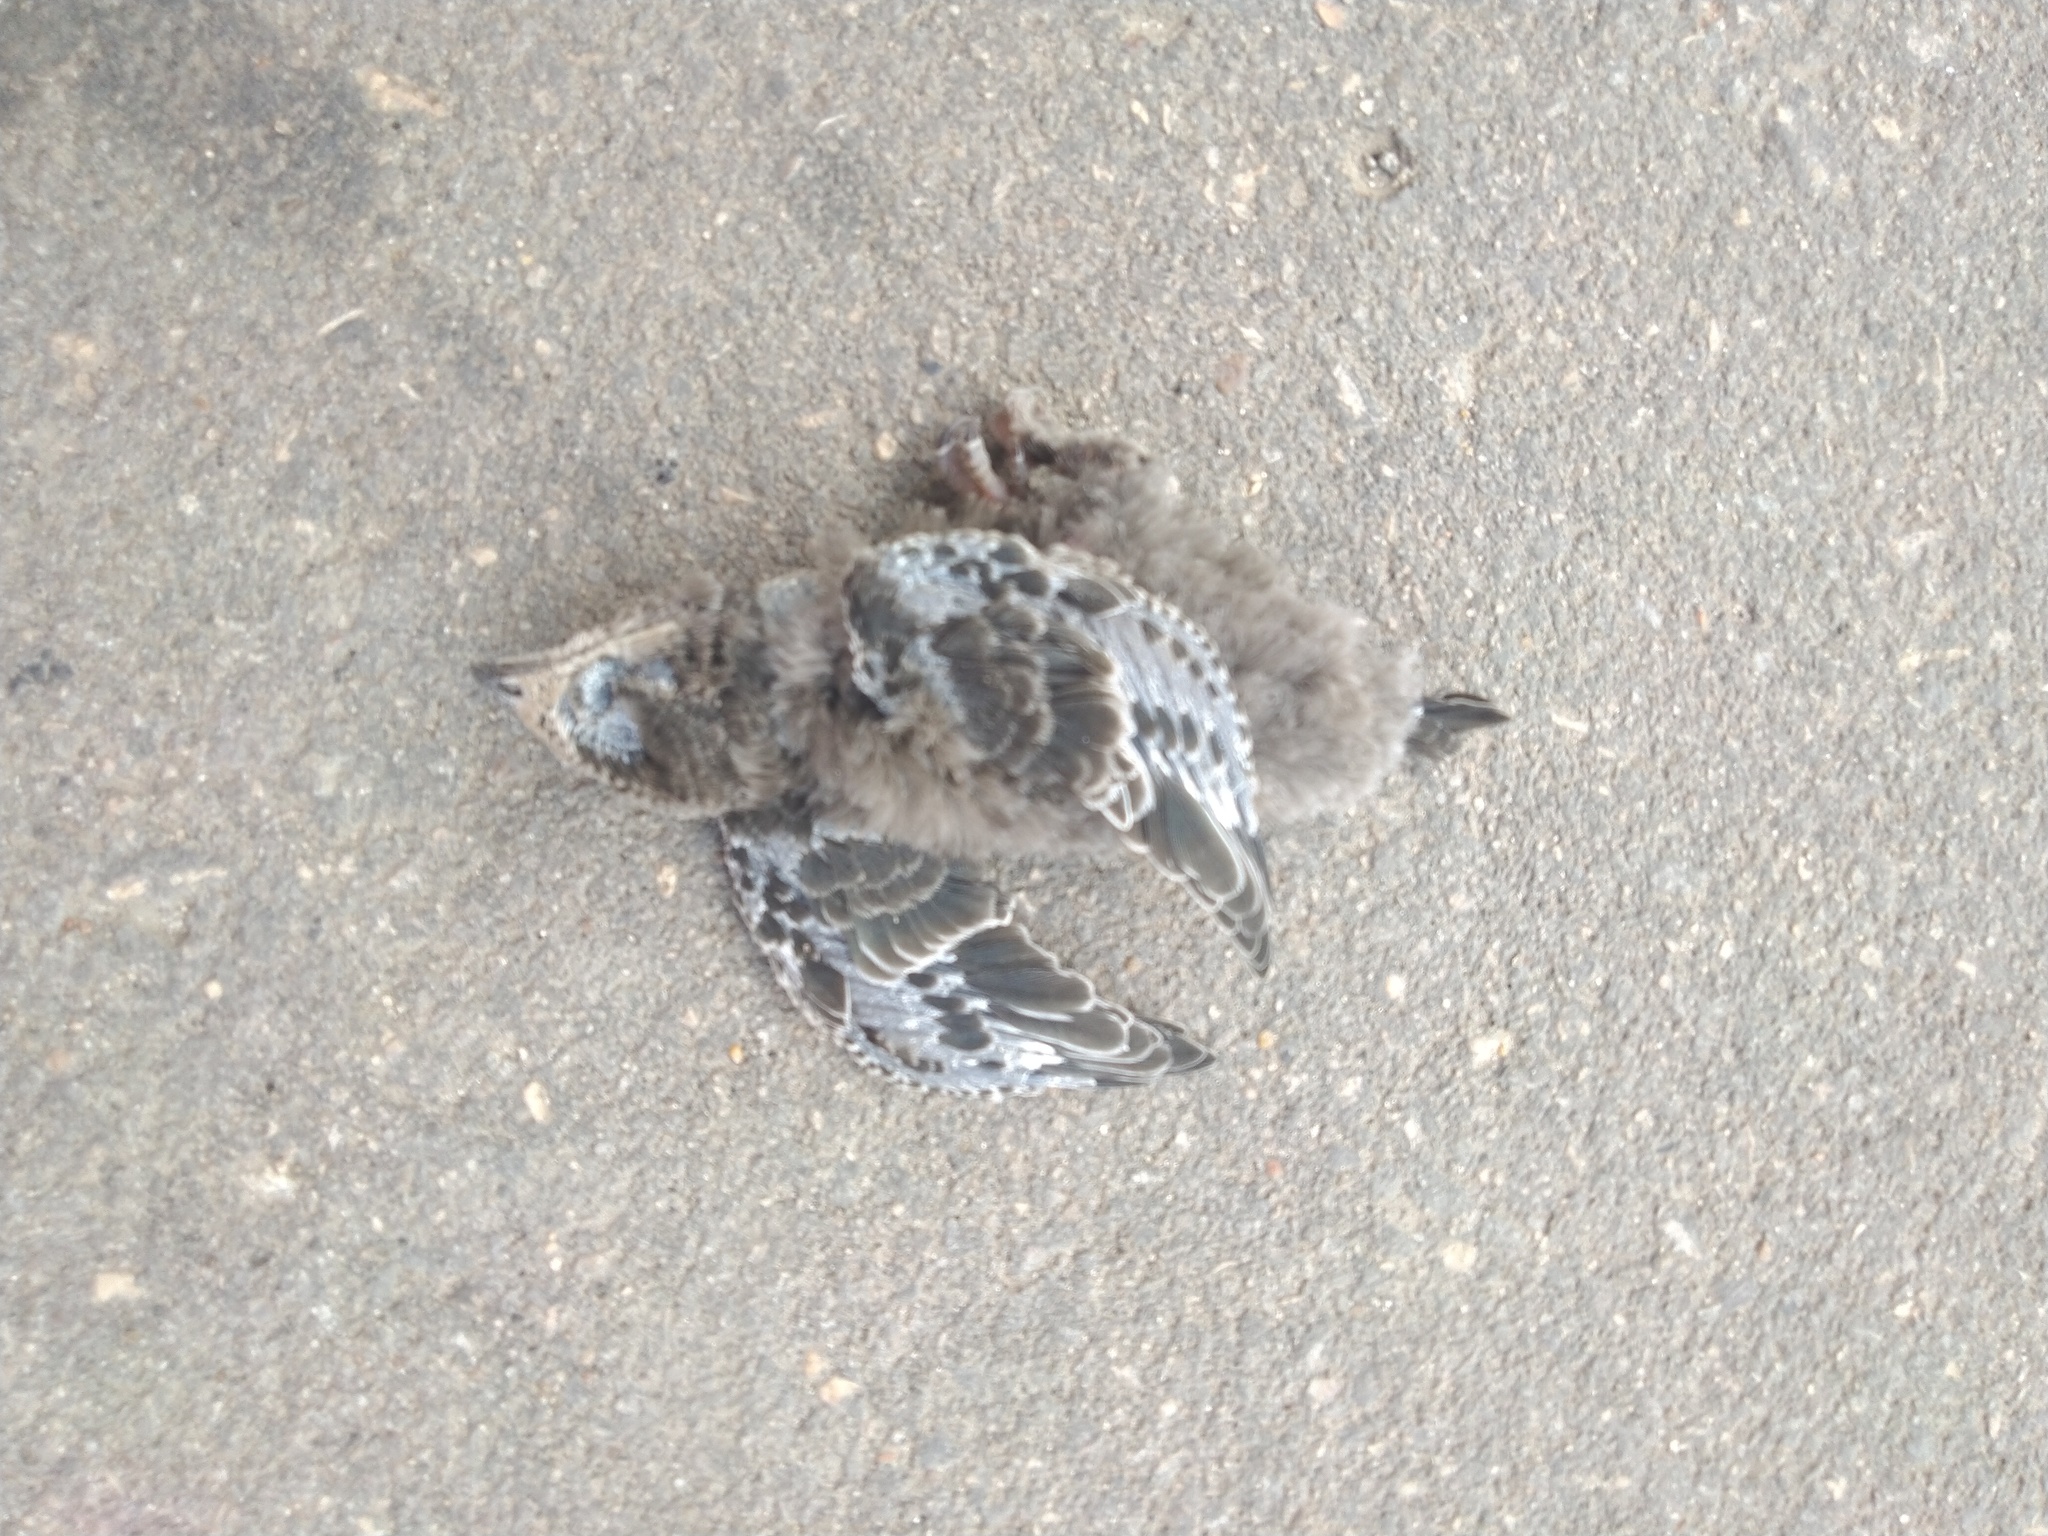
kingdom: Animalia
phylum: Chordata
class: Aves
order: Apodiformes
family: Apodidae
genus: Apus
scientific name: Apus apus
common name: Common swift
